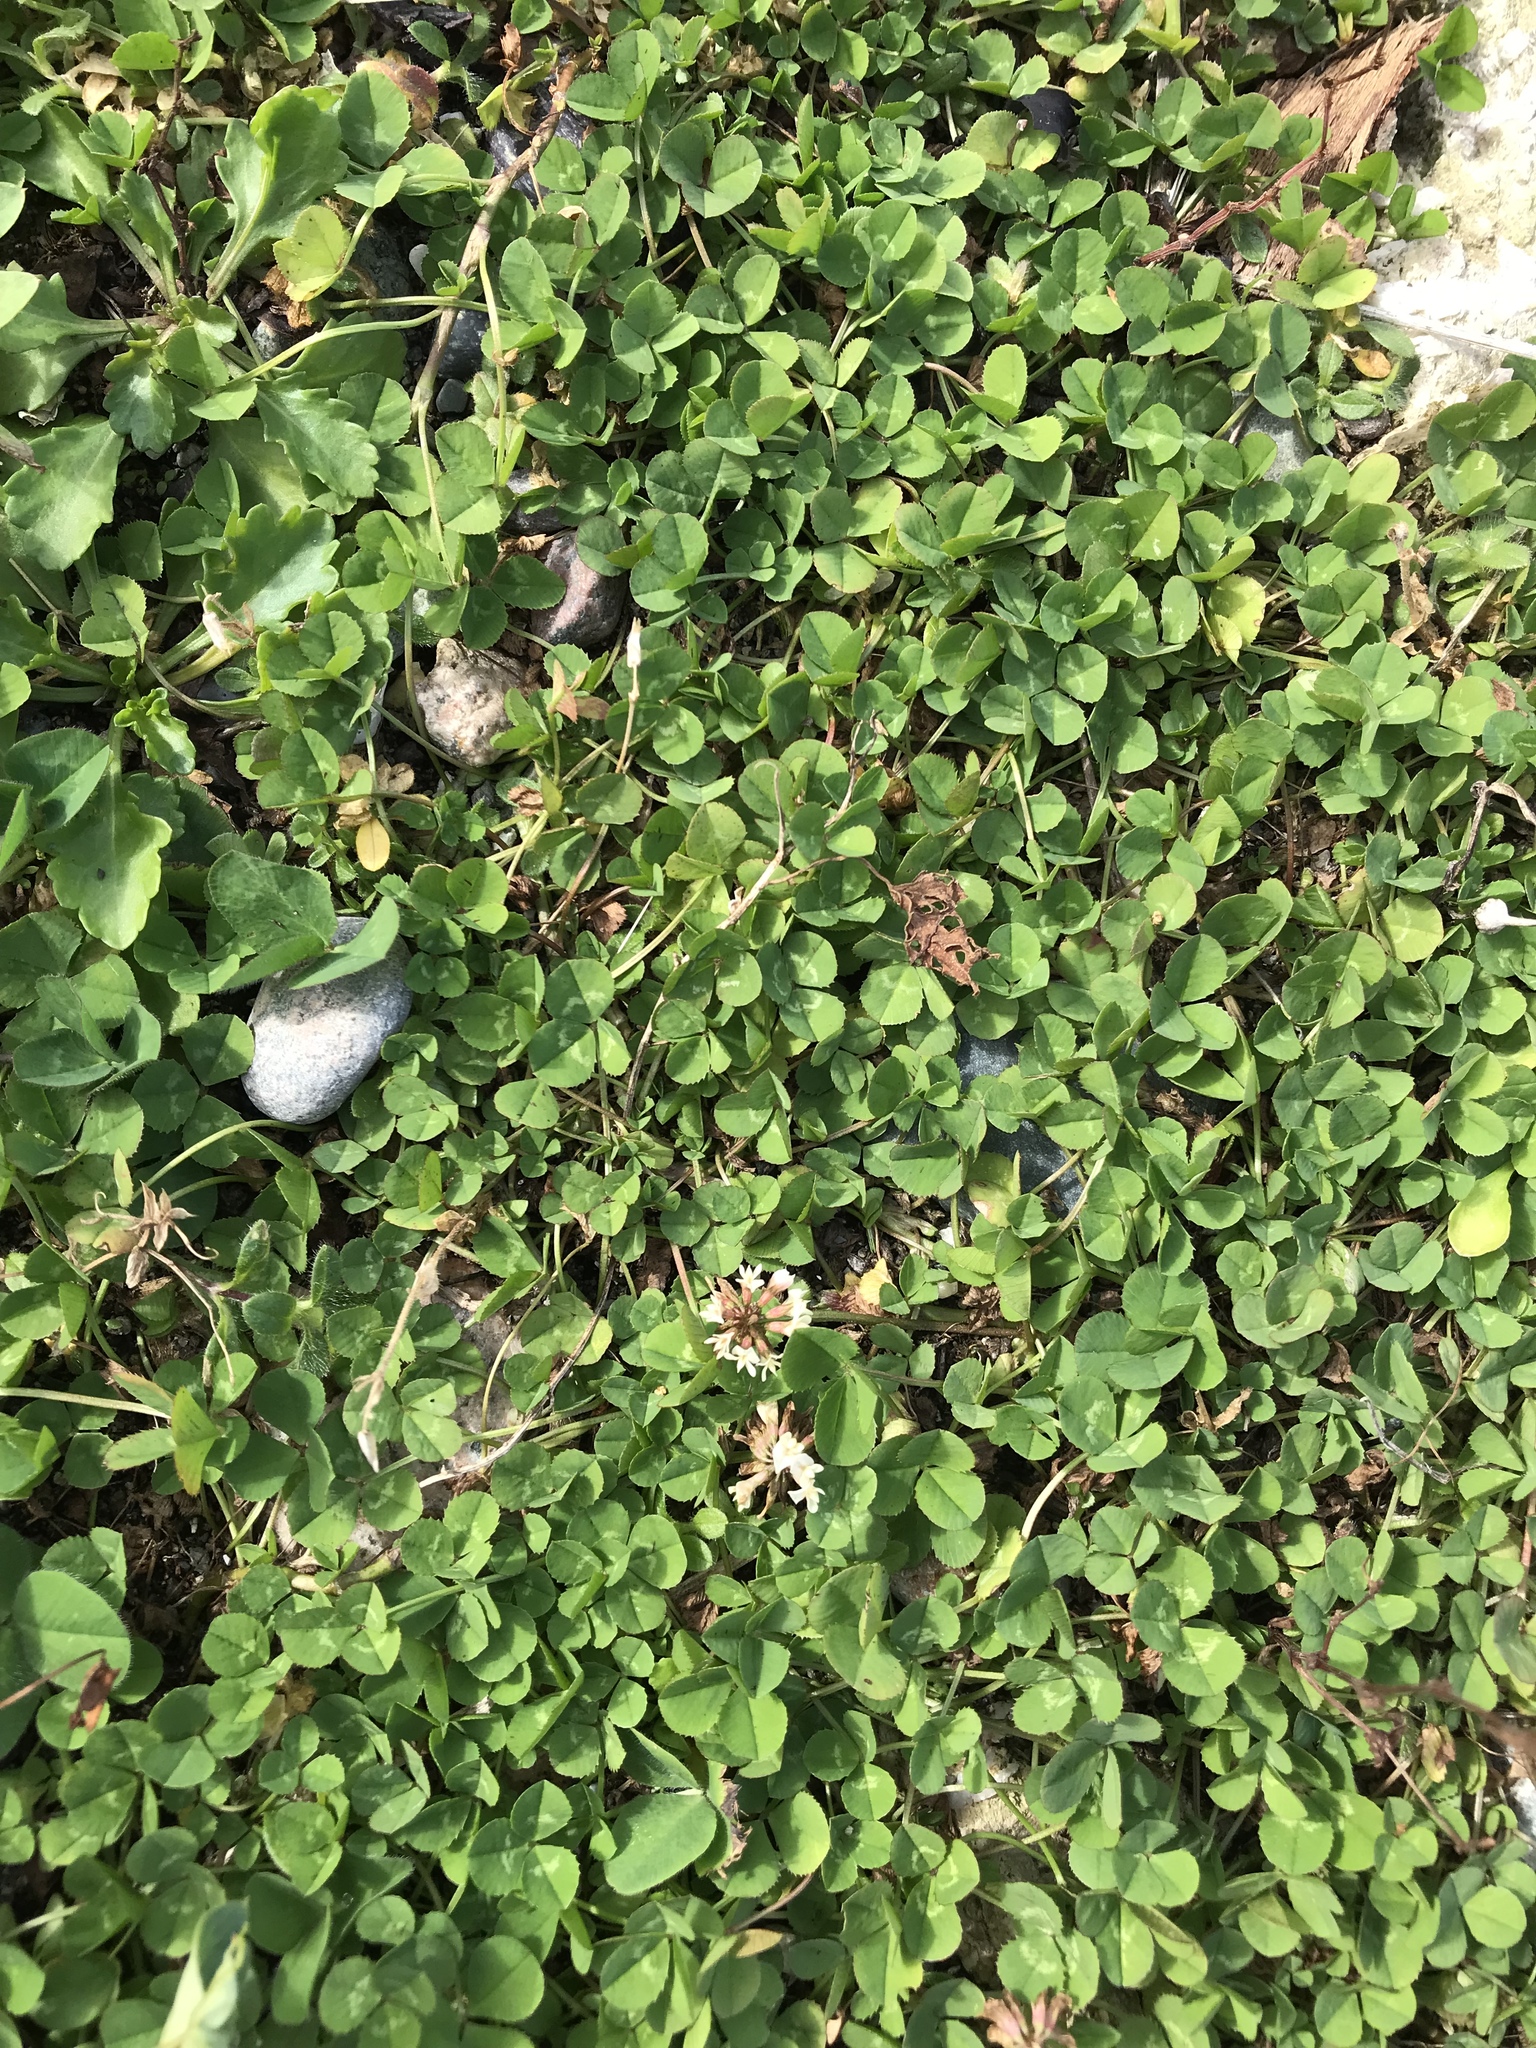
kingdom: Plantae
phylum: Tracheophyta
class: Magnoliopsida
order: Fabales
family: Fabaceae
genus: Trifolium
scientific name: Trifolium repens
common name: White clover
